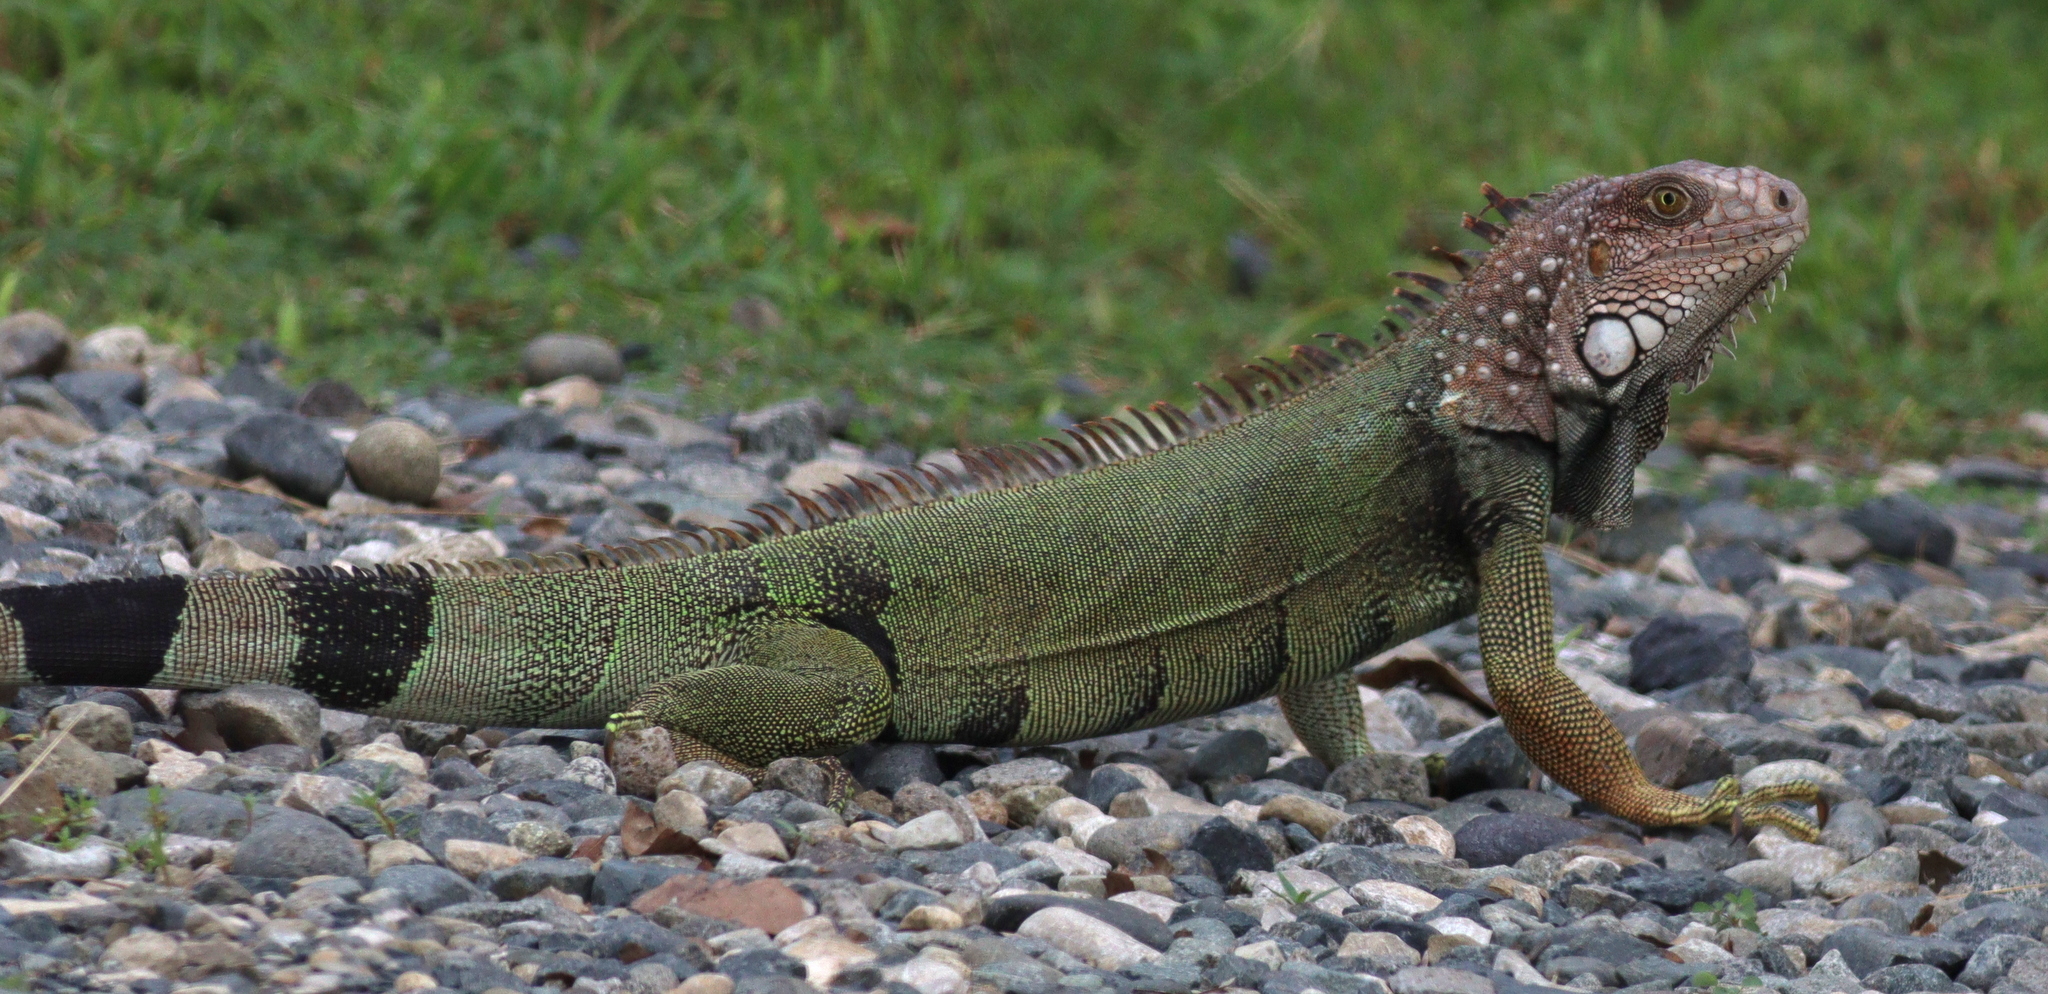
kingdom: Animalia
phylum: Chordata
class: Squamata
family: Iguanidae
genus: Iguana
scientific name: Iguana iguana
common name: Green iguana
